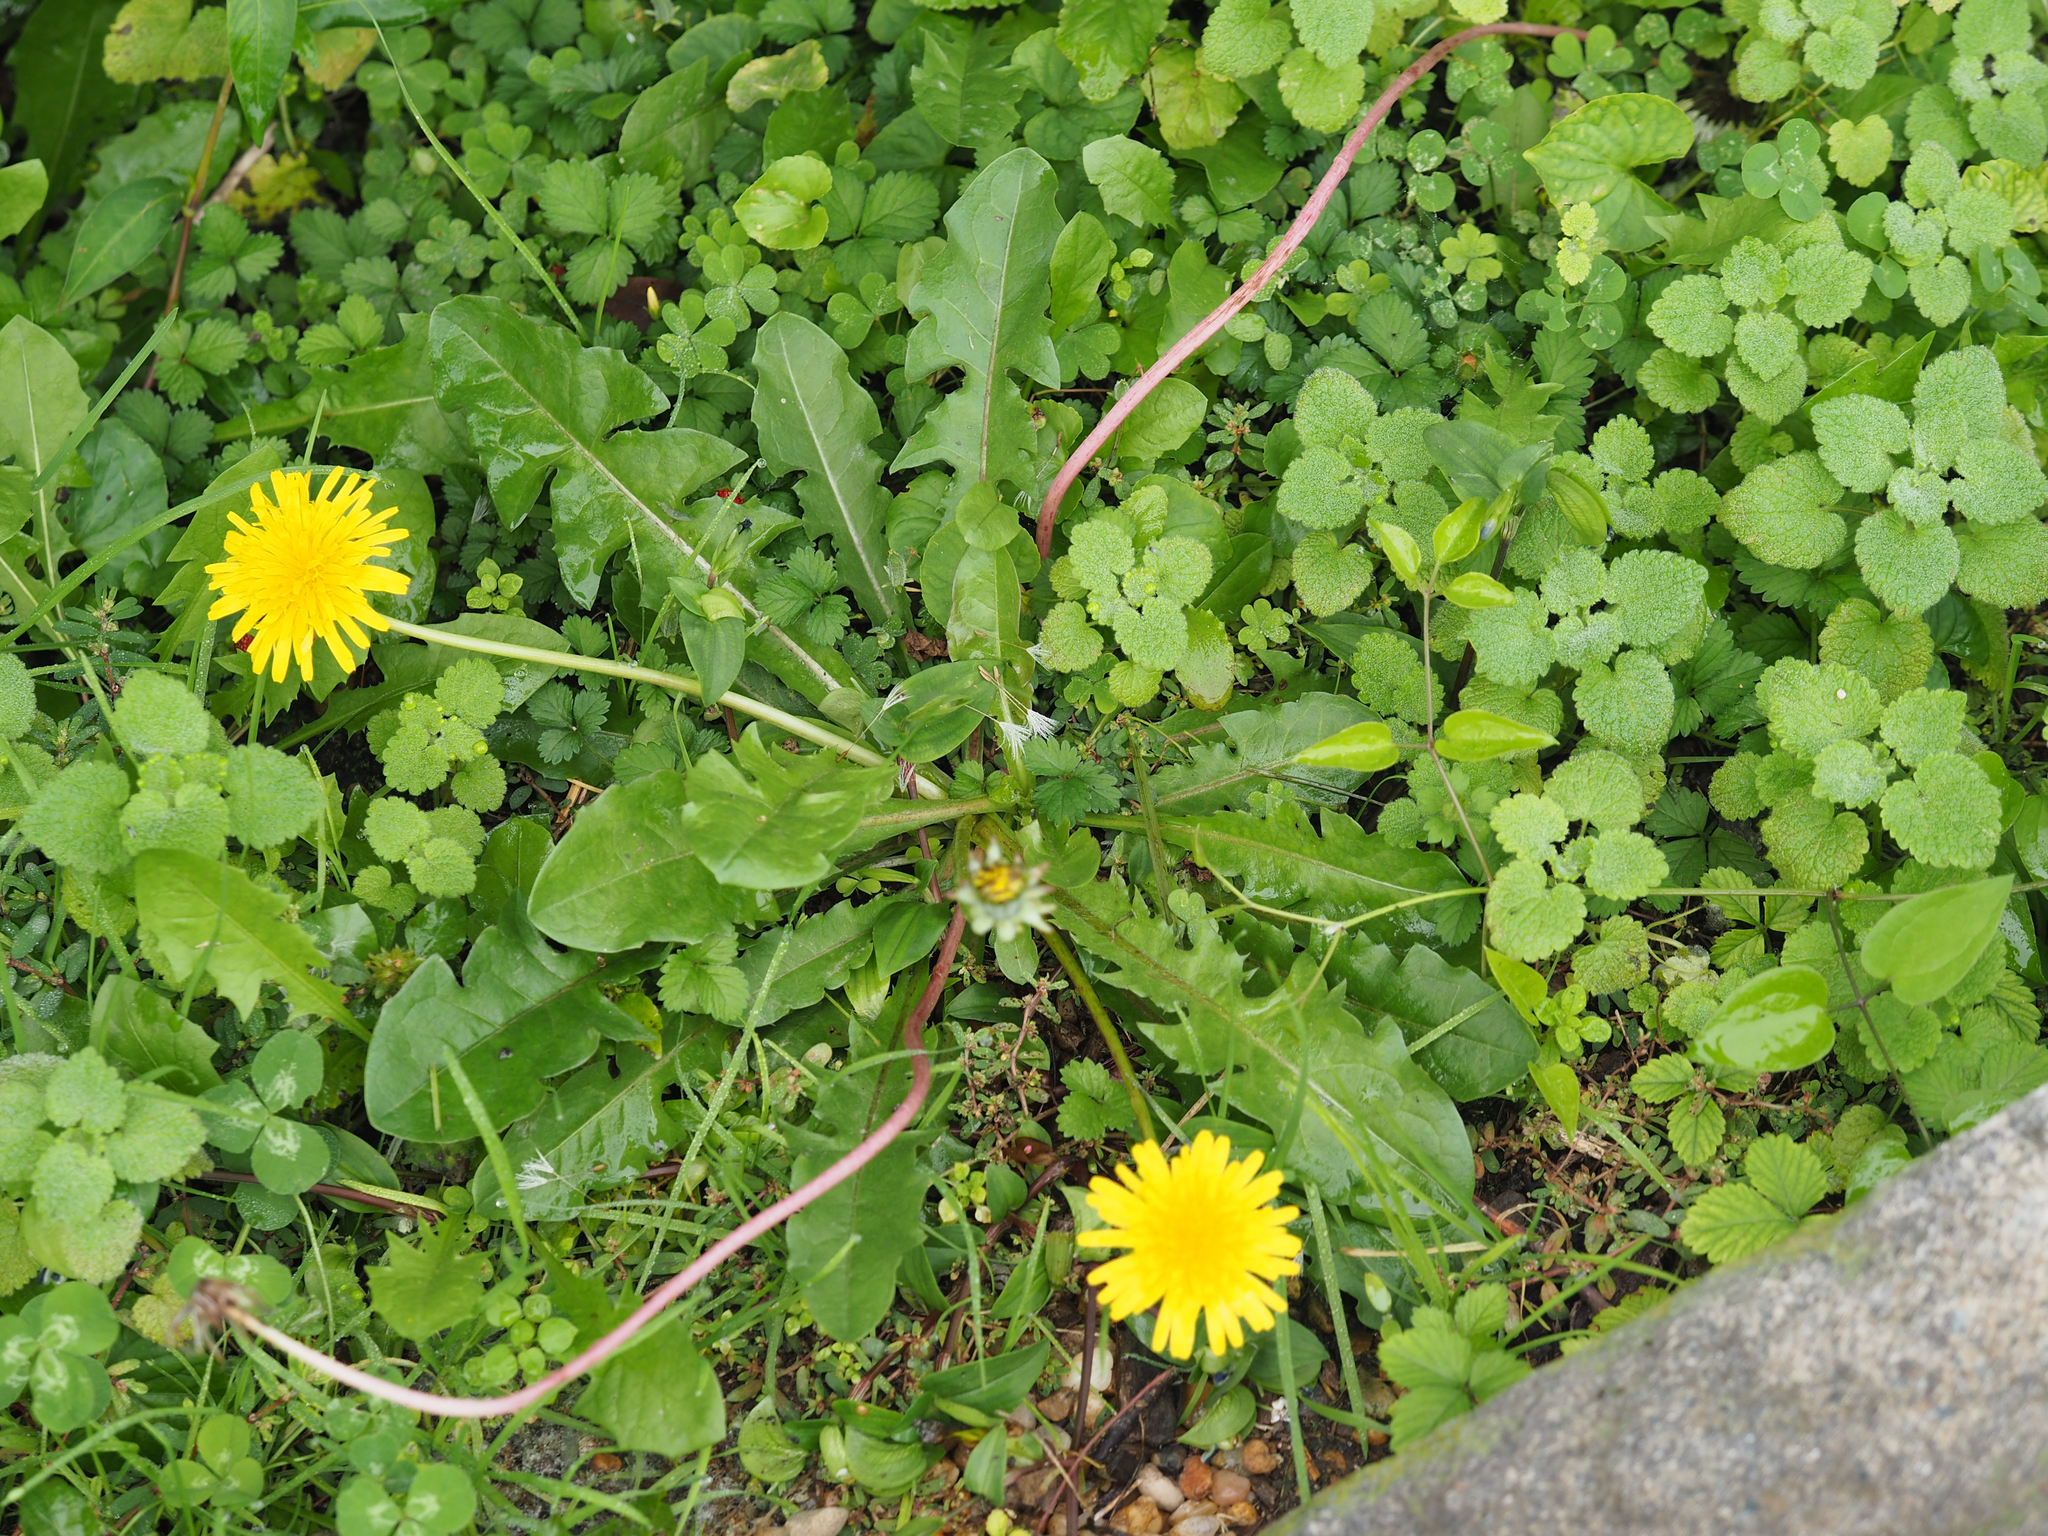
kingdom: Plantae
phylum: Tracheophyta
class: Magnoliopsida
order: Asterales
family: Asteraceae
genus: Taraxacum
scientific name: Taraxacum officinale
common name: Common dandelion
